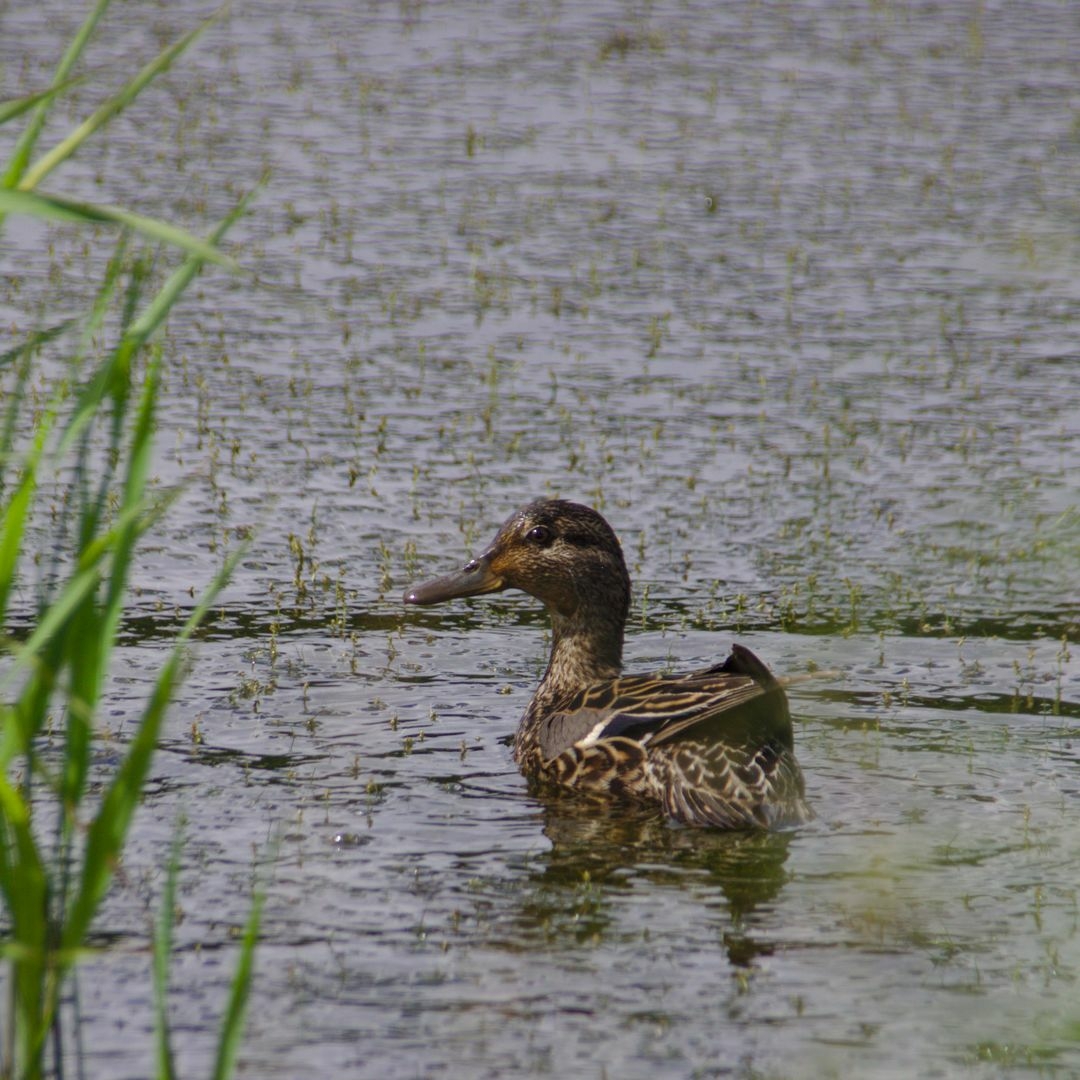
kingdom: Animalia
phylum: Chordata
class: Aves
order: Anseriformes
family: Anatidae
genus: Anas
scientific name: Anas platyrhynchos
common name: Mallard
